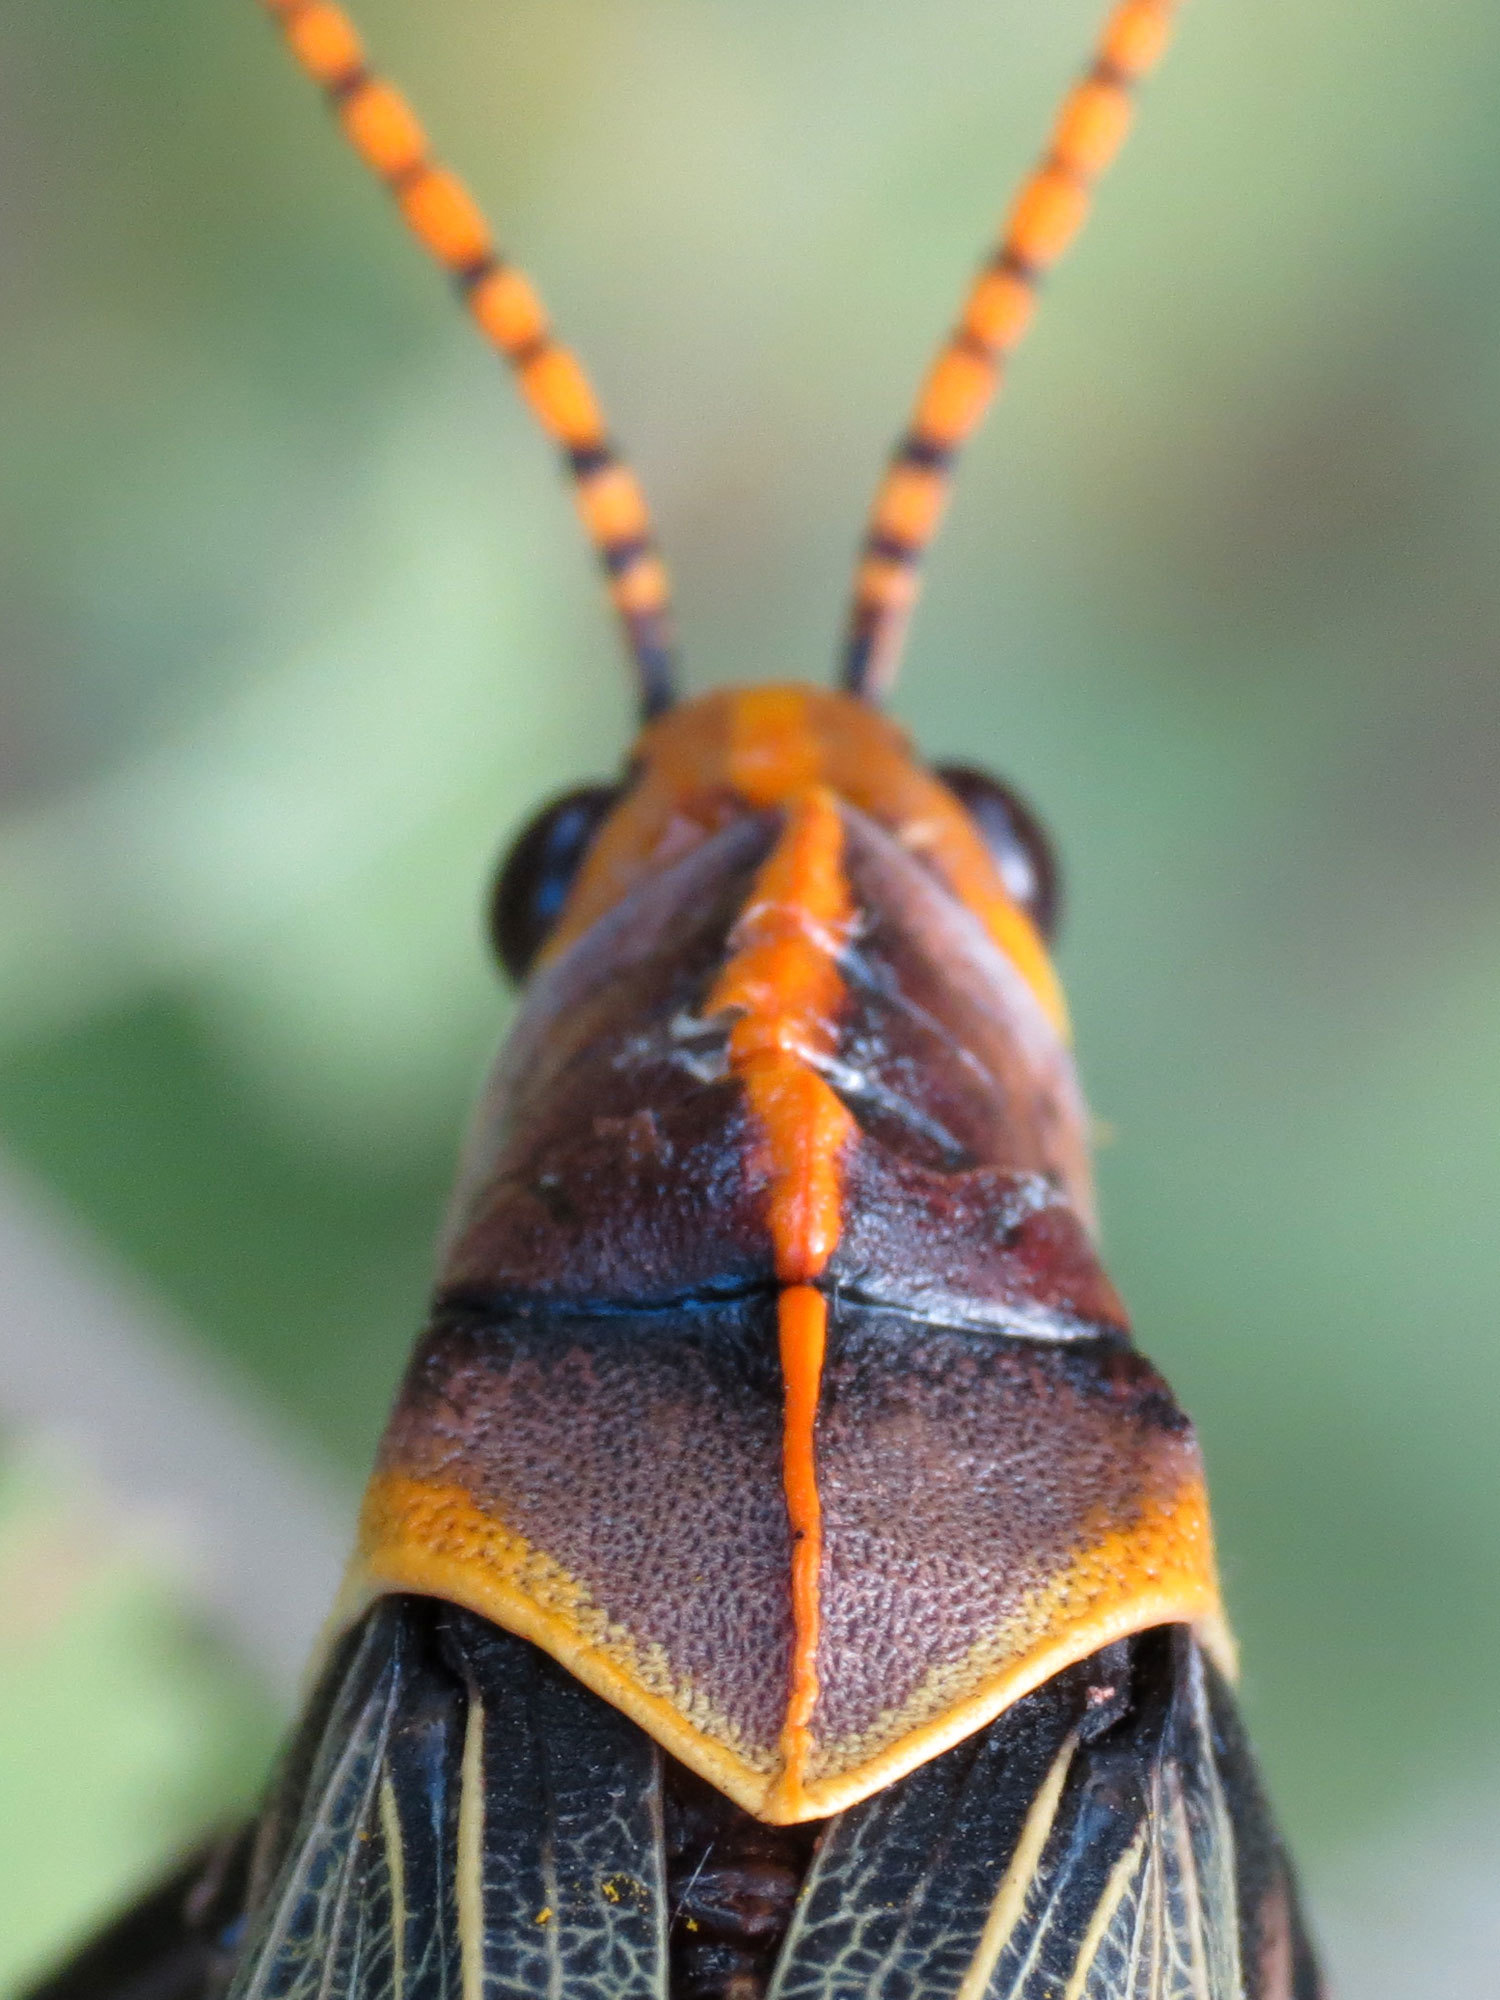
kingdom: Animalia
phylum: Arthropoda
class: Insecta
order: Orthoptera
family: Romaleidae
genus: Romalea
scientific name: Romalea
